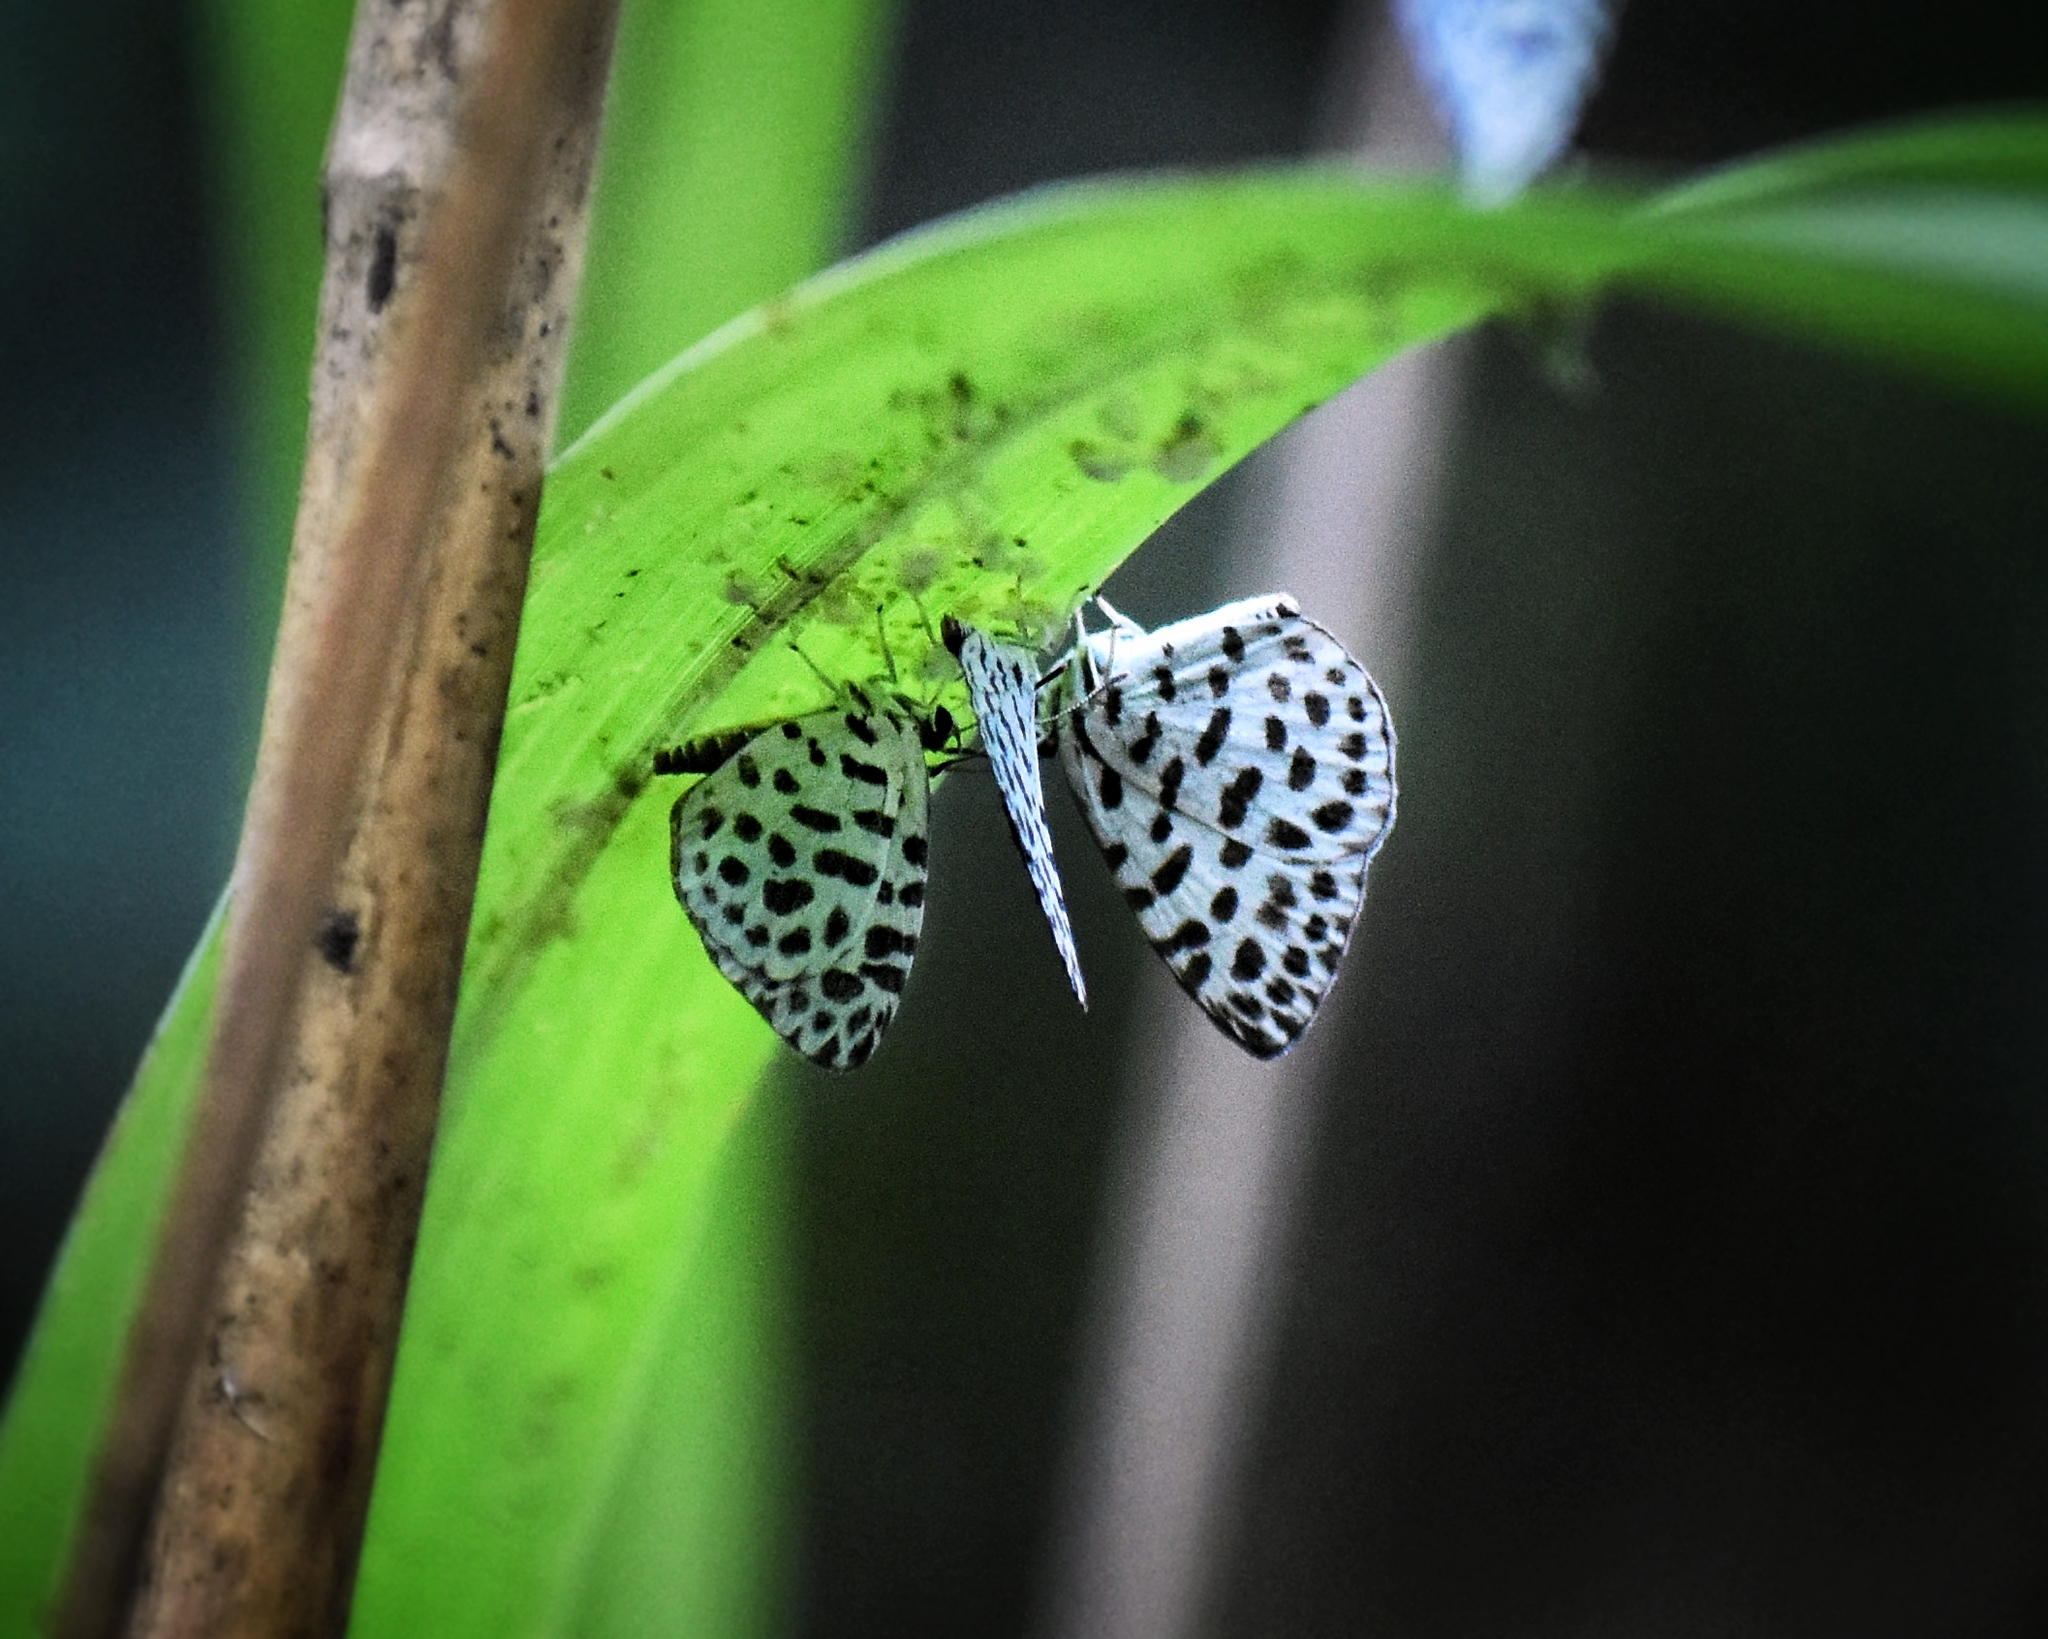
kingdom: Animalia
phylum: Arthropoda
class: Insecta
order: Lepidoptera
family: Lycaenidae
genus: Taraka
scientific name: Taraka hamada
